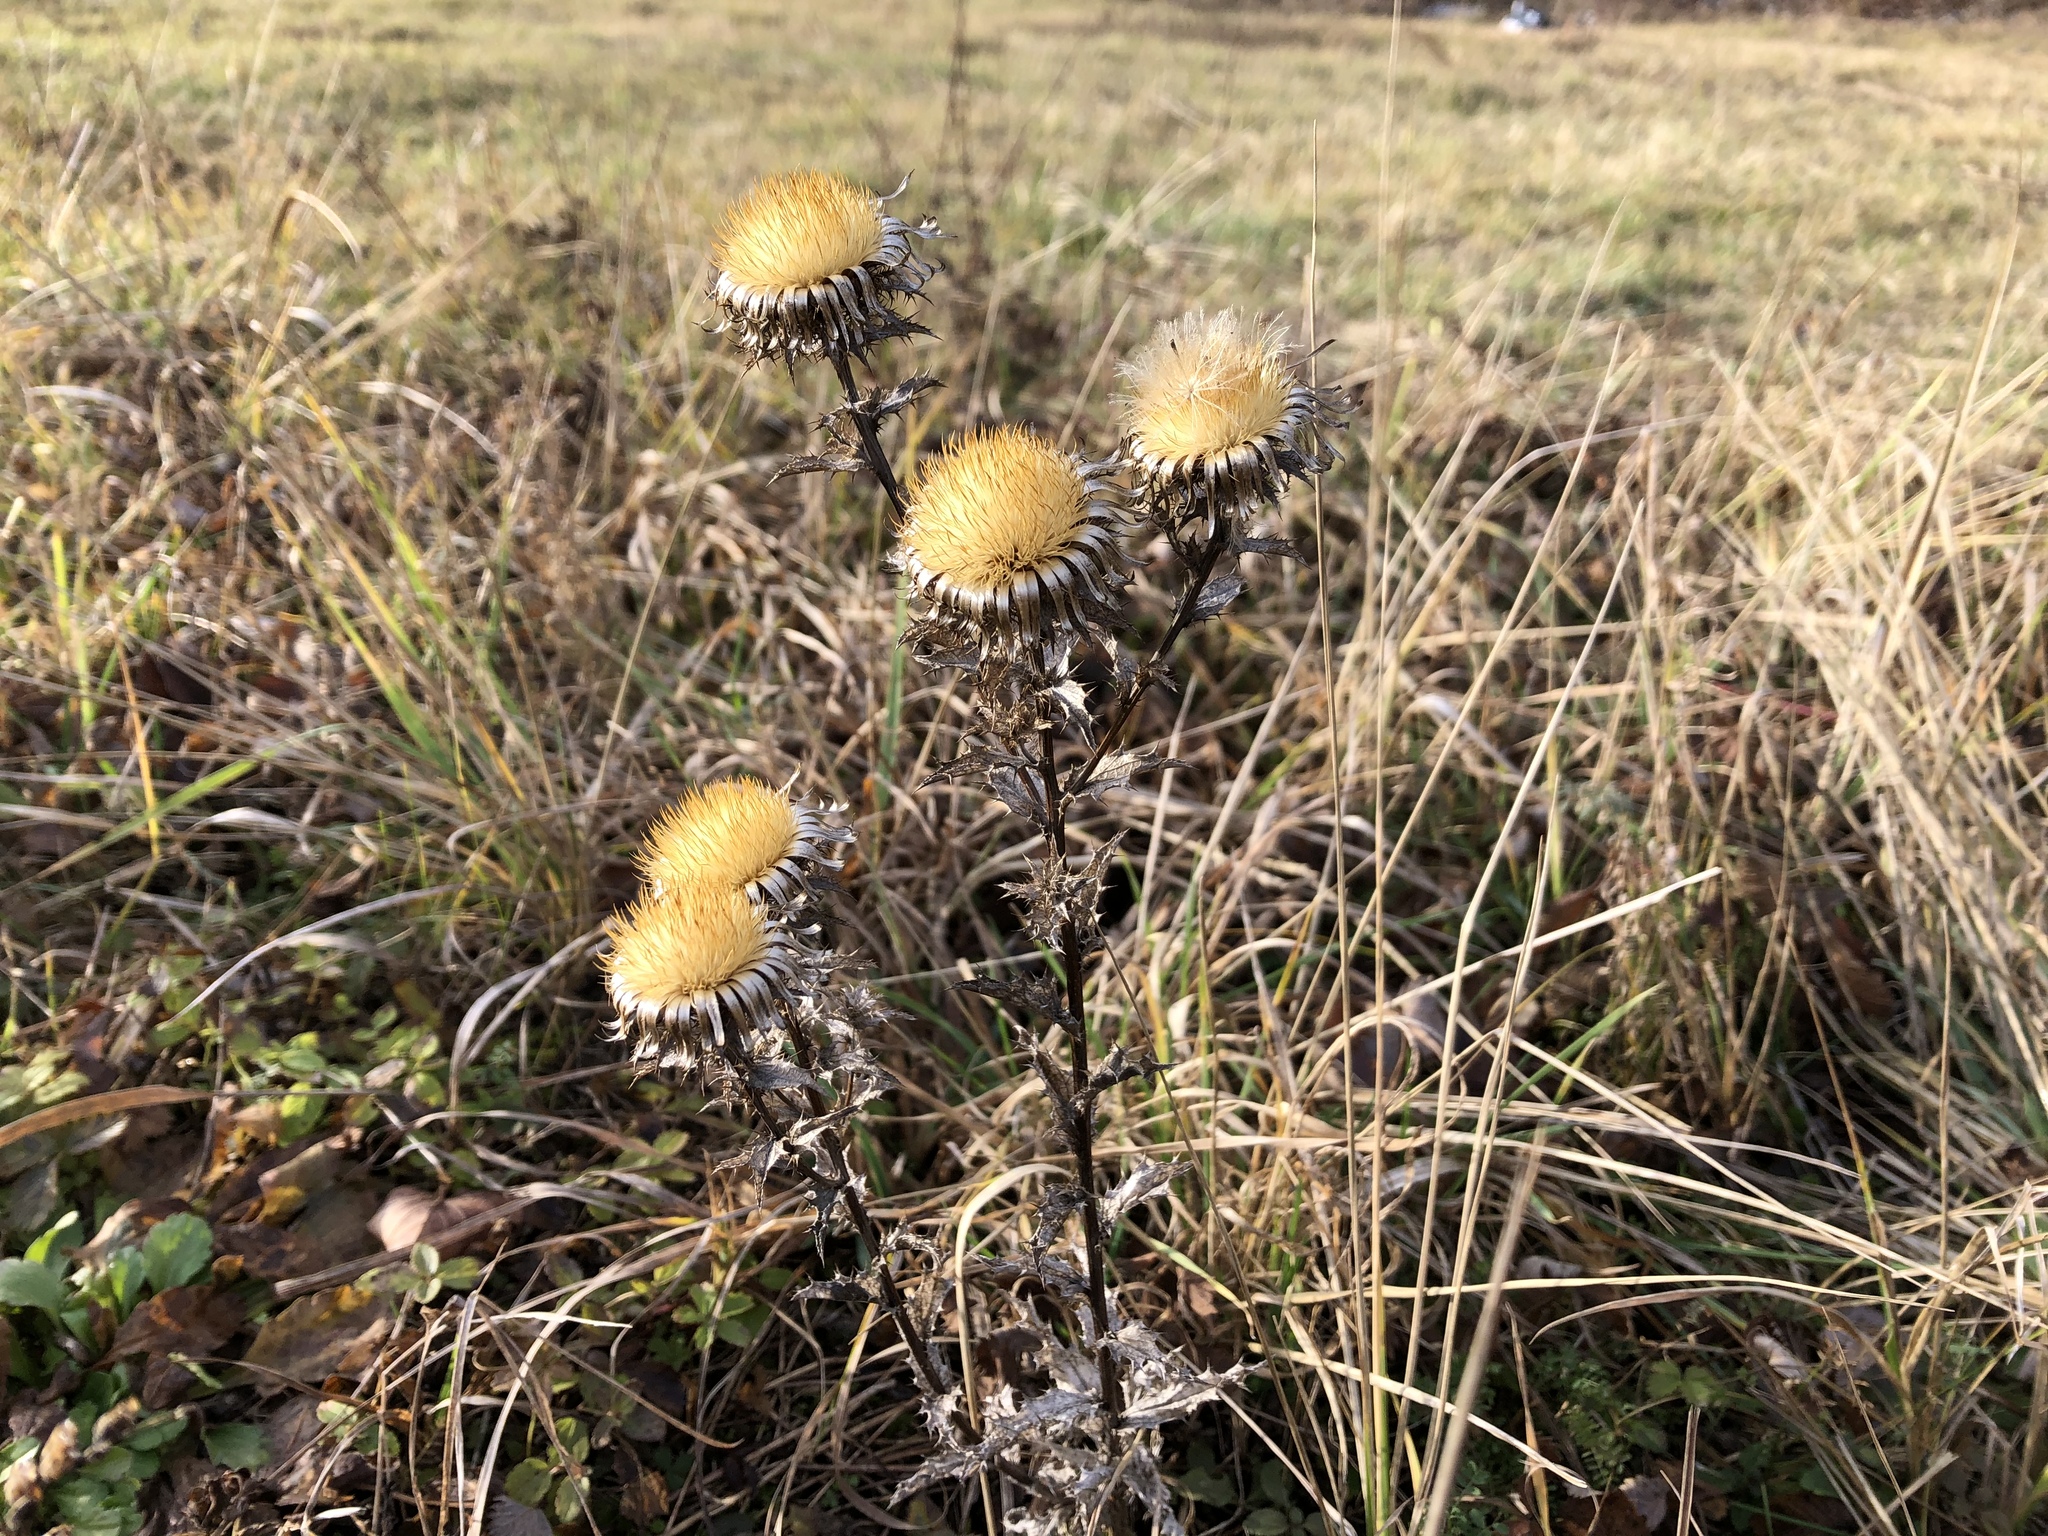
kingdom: Plantae
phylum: Tracheophyta
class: Magnoliopsida
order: Asterales
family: Asteraceae
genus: Carlina
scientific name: Carlina vulgaris
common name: Carline thistle
